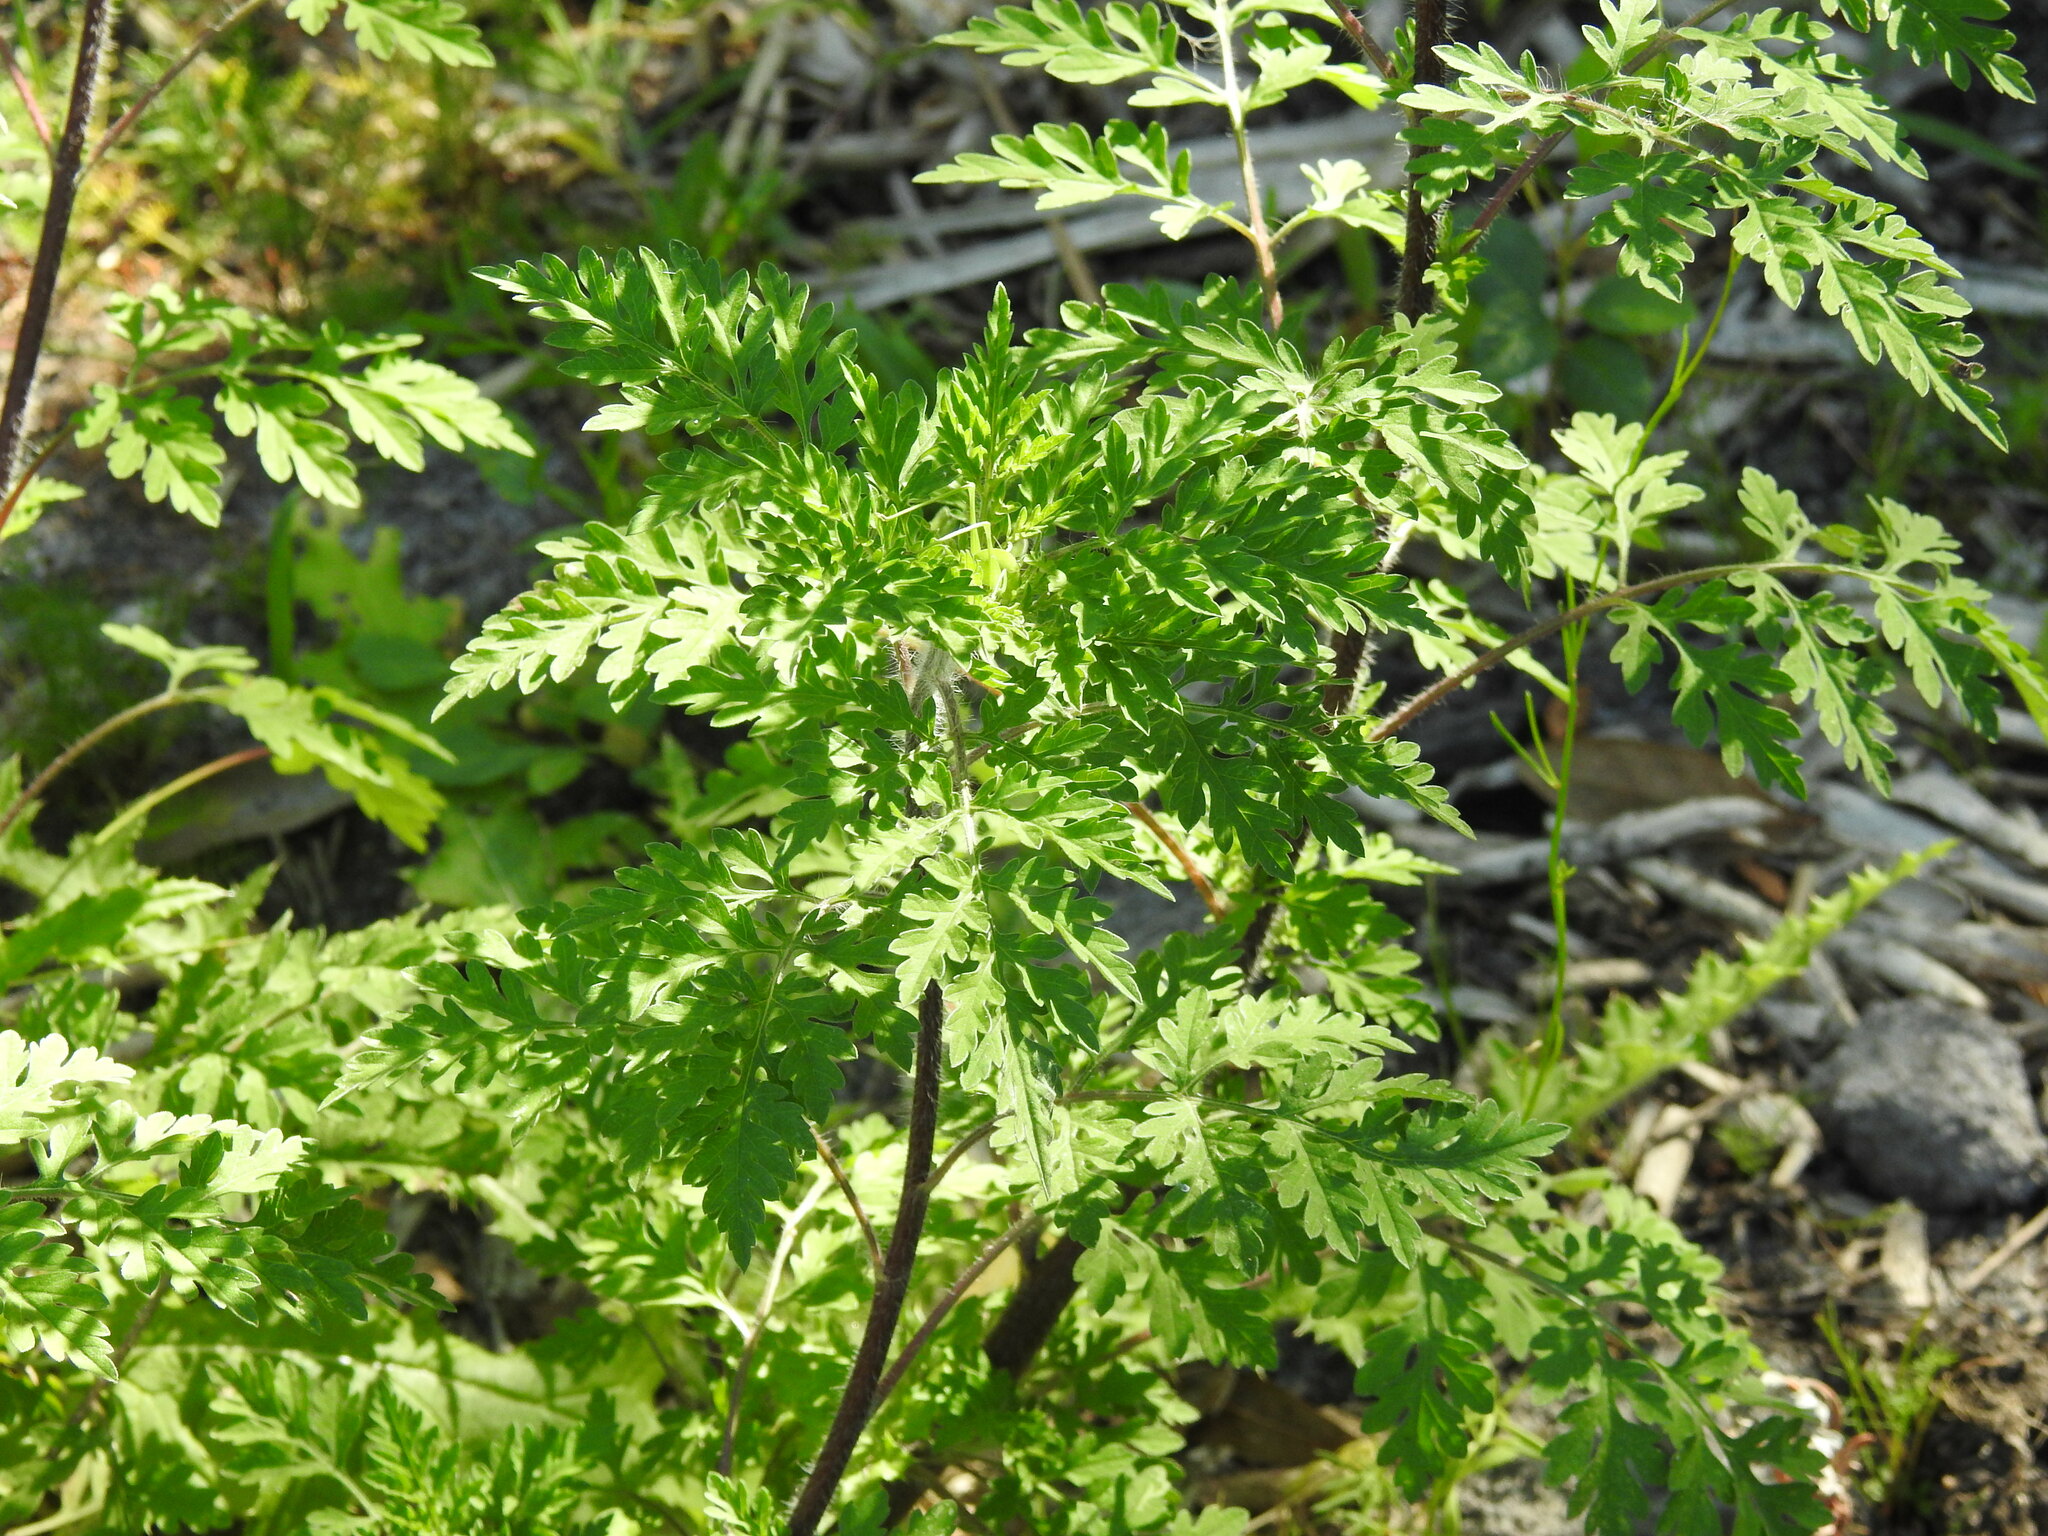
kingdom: Plantae
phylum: Tracheophyta
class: Magnoliopsida
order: Asterales
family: Asteraceae
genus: Ambrosia
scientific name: Ambrosia artemisiifolia
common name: Annual ragweed
